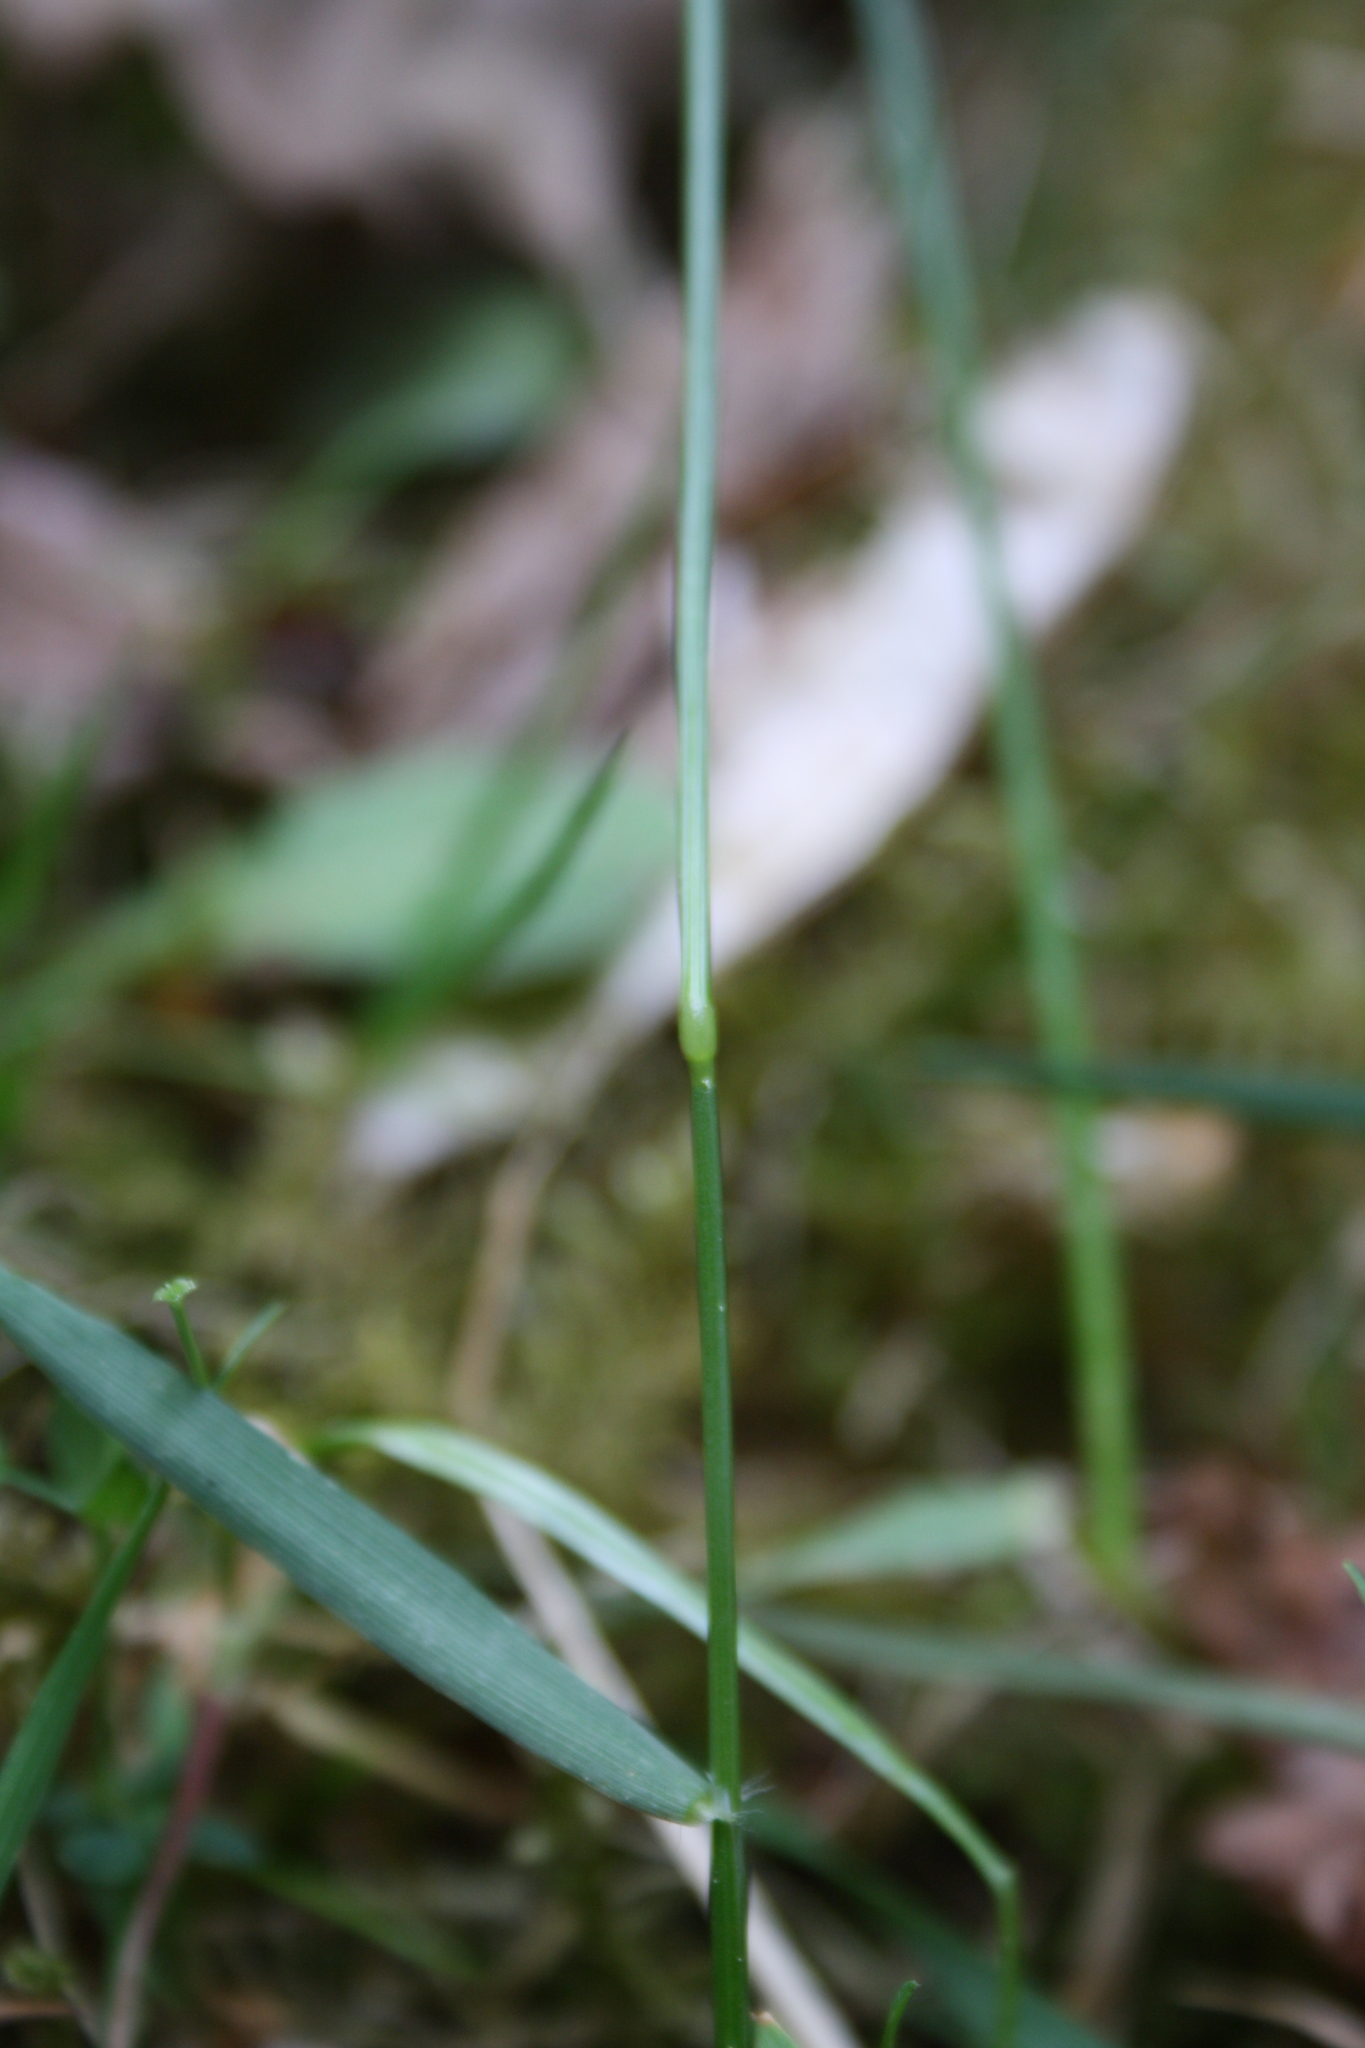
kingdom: Plantae
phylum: Tracheophyta
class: Liliopsida
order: Poales
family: Poaceae
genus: Anthoxanthum
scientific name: Anthoxanthum odoratum
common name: Sweet vernalgrass
